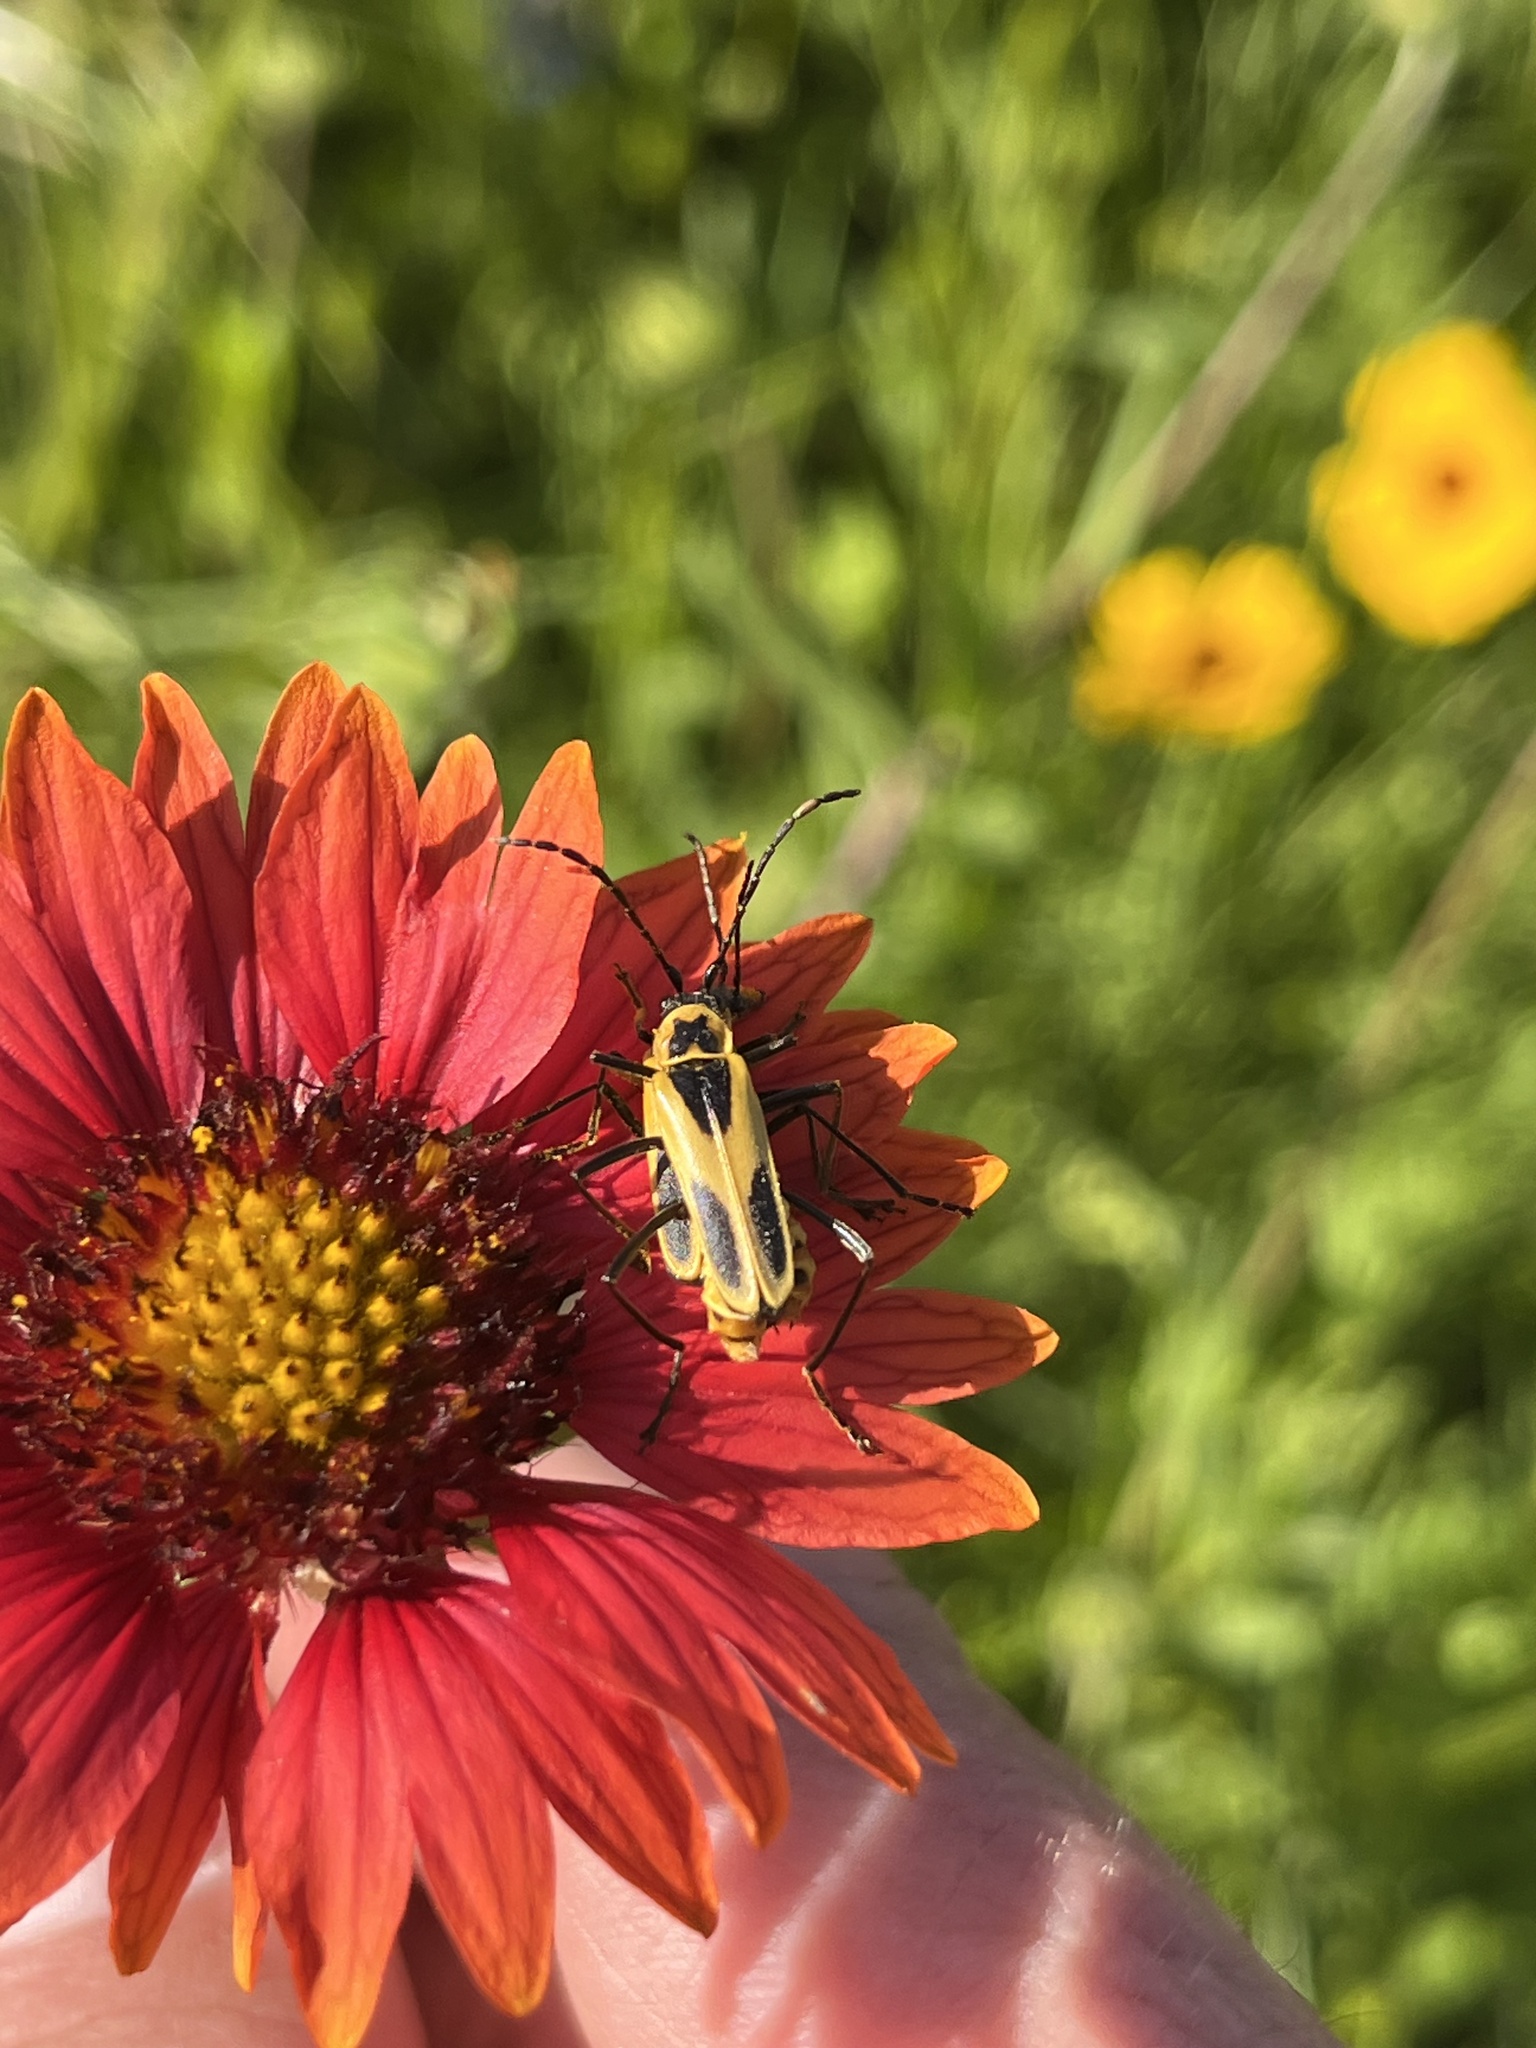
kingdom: Animalia
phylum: Arthropoda
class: Insecta
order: Coleoptera
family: Cantharidae
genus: Chauliognathus
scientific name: Chauliognathus scutellaris
